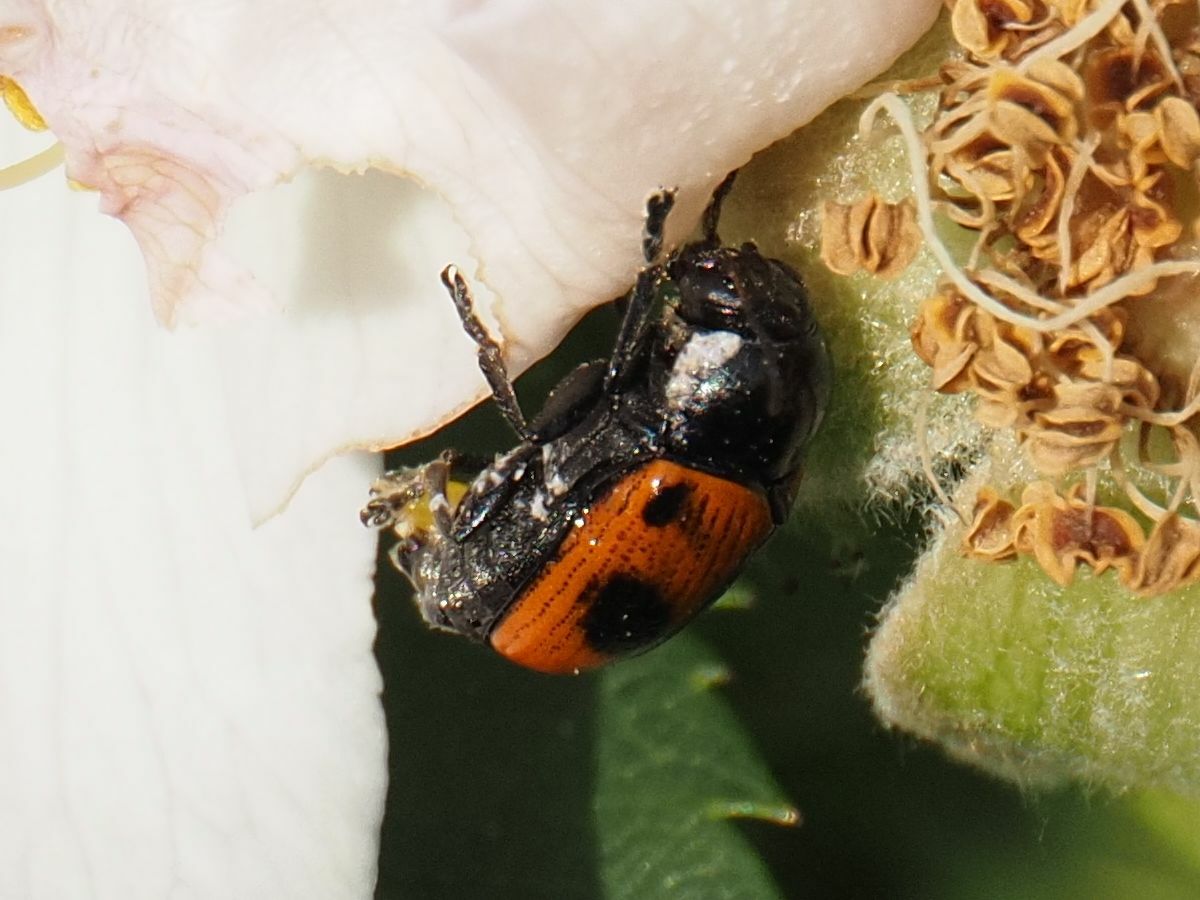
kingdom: Animalia
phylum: Arthropoda
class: Insecta
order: Coleoptera
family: Chrysomelidae
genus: Chiridopsis
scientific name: Chiridopsis bipunctata
